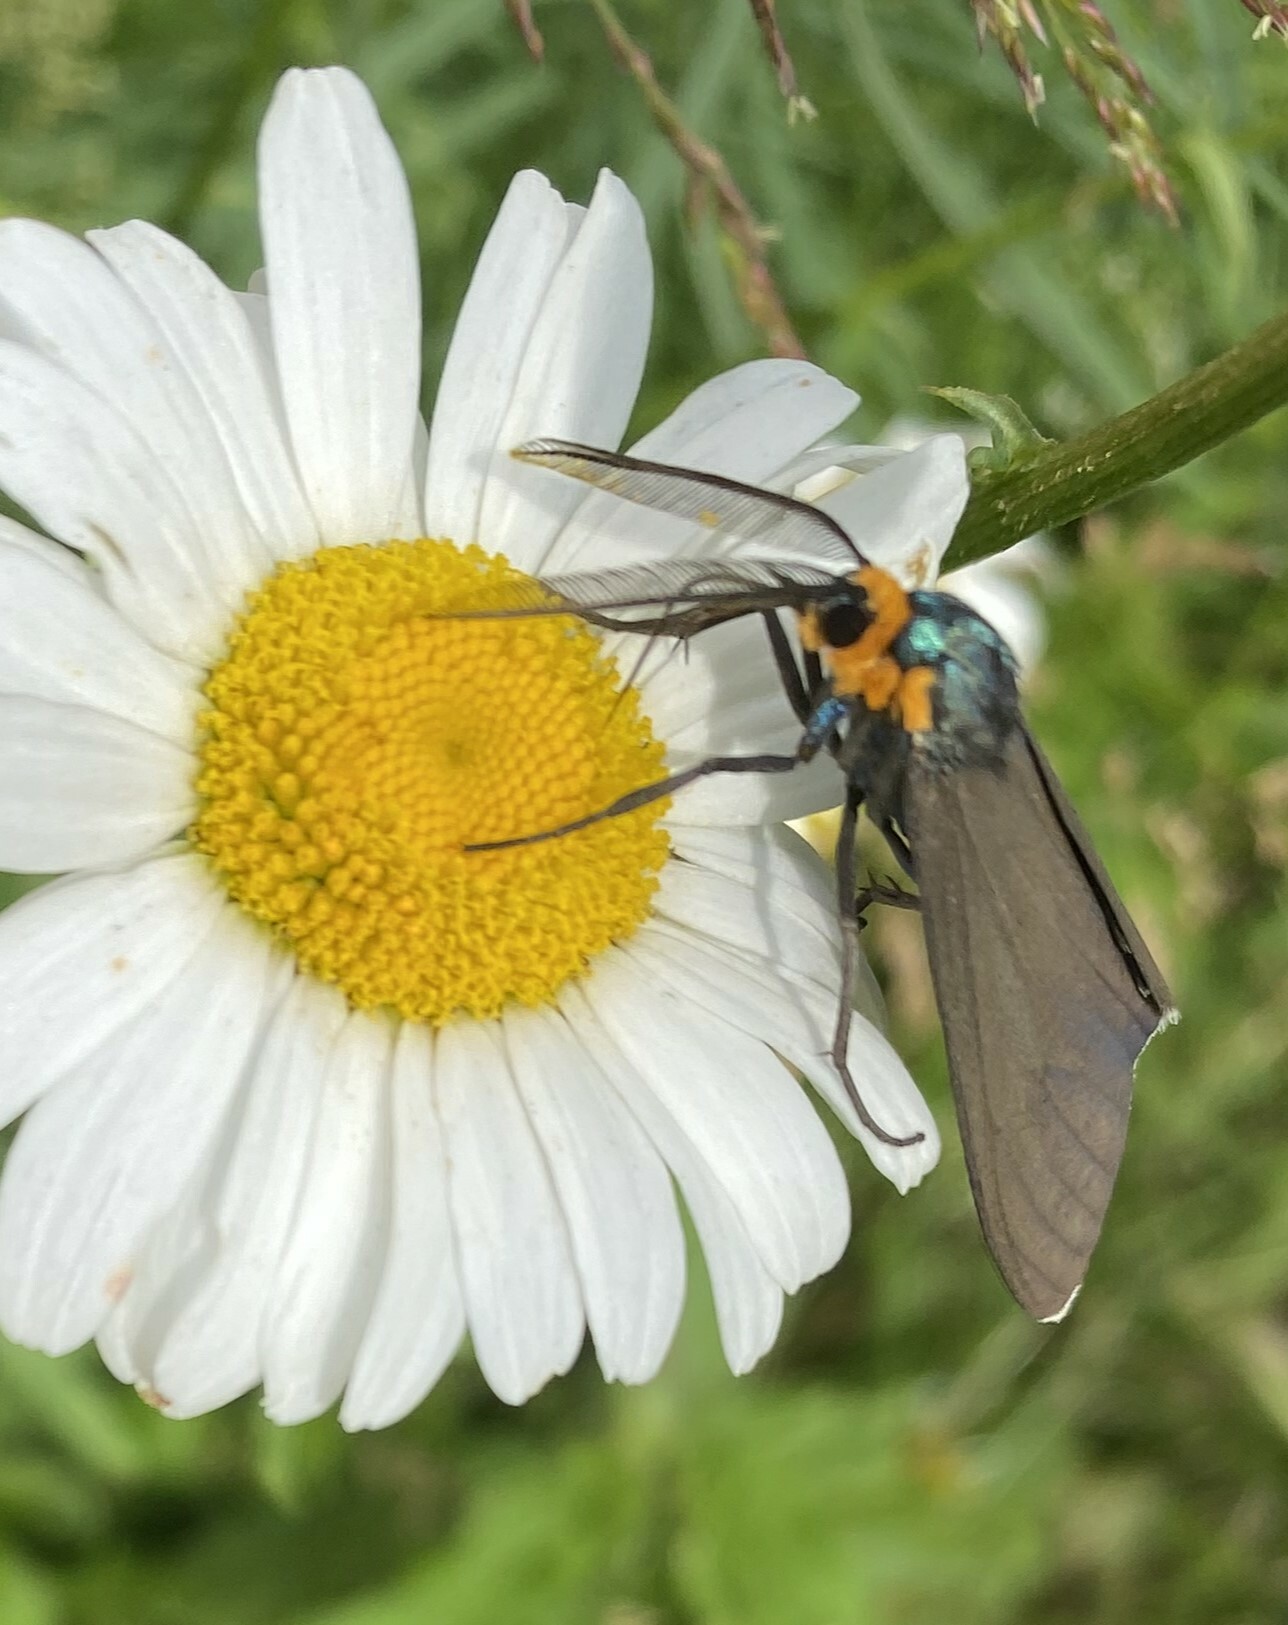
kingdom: Animalia
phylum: Arthropoda
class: Insecta
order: Lepidoptera
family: Erebidae
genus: Ctenucha
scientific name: Ctenucha virginica
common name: Virginia ctenucha moth
